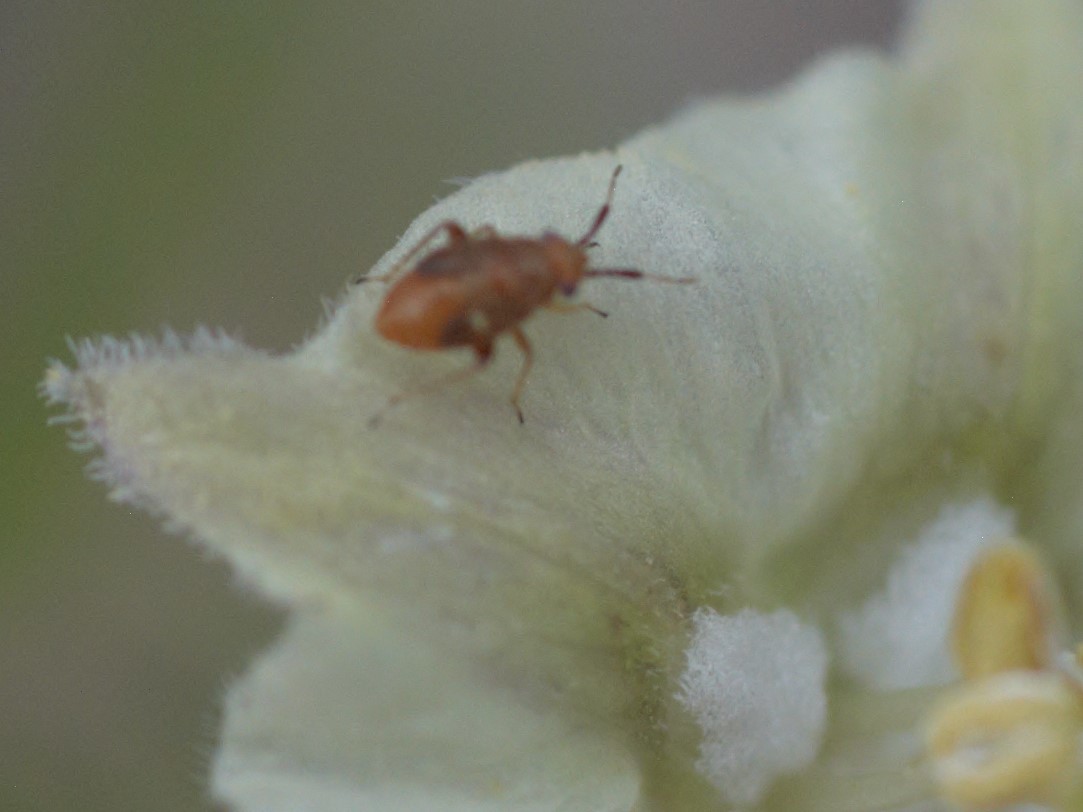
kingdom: Animalia
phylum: Arthropoda
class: Insecta
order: Hemiptera
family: Miridae
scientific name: Miridae
